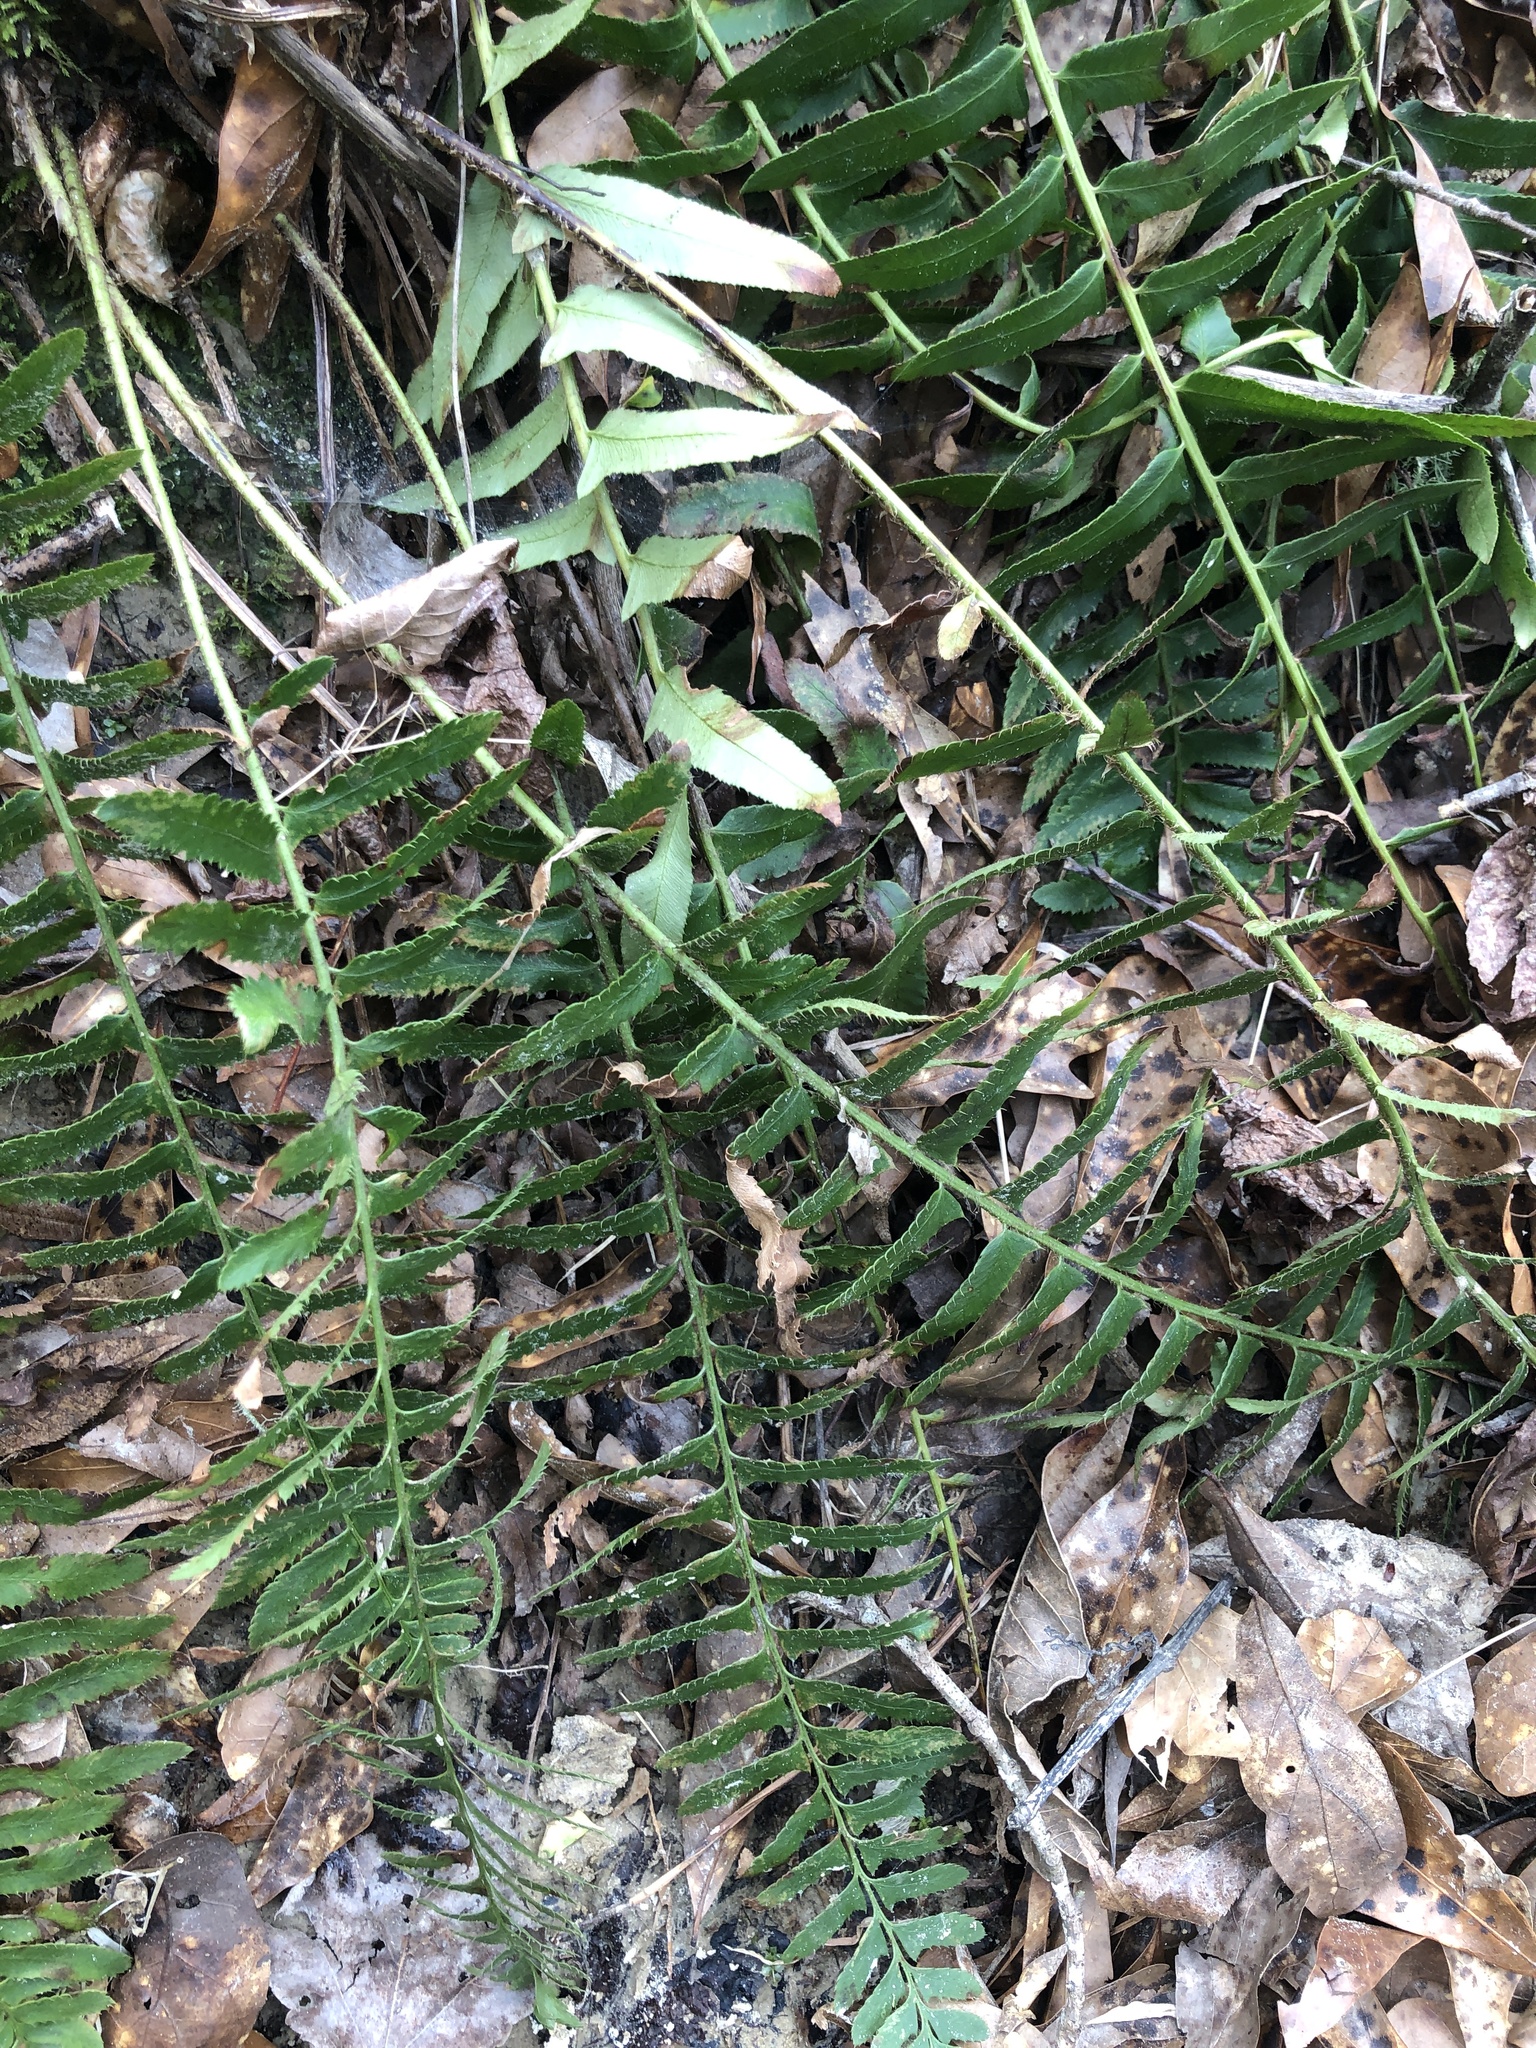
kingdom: Plantae
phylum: Tracheophyta
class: Polypodiopsida
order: Polypodiales
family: Dryopteridaceae
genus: Polystichum
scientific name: Polystichum acrostichoides
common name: Christmas fern
